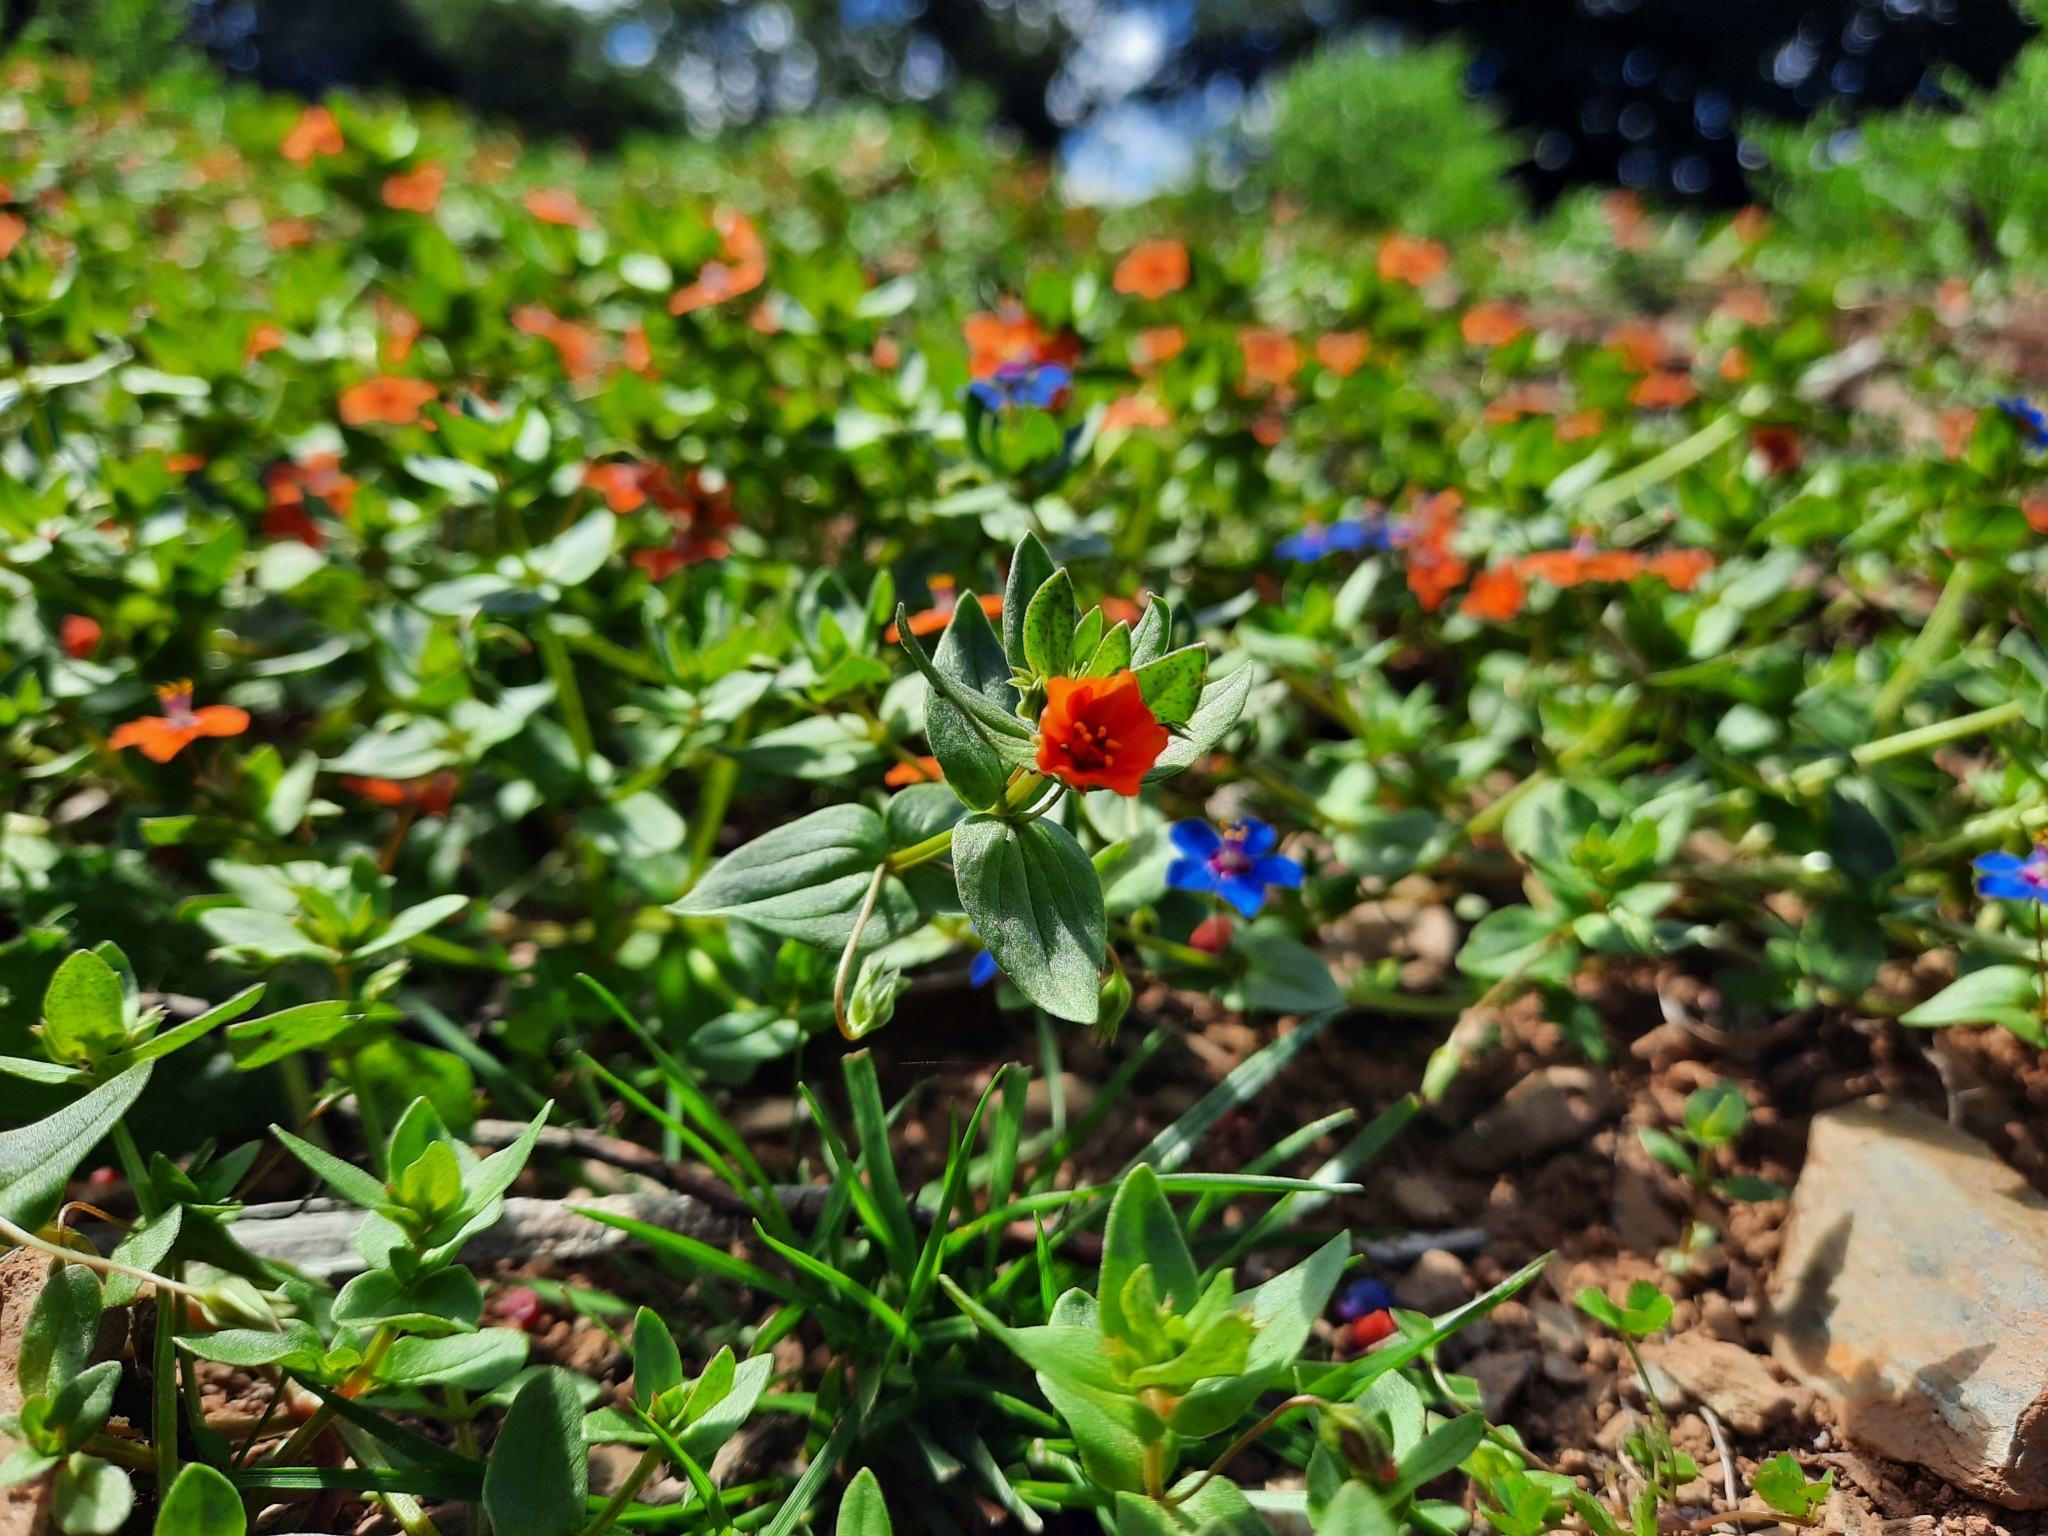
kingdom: Plantae
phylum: Tracheophyta
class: Magnoliopsida
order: Ericales
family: Primulaceae
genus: Lysimachia
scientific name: Lysimachia arvensis
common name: Scarlet pimpernel
